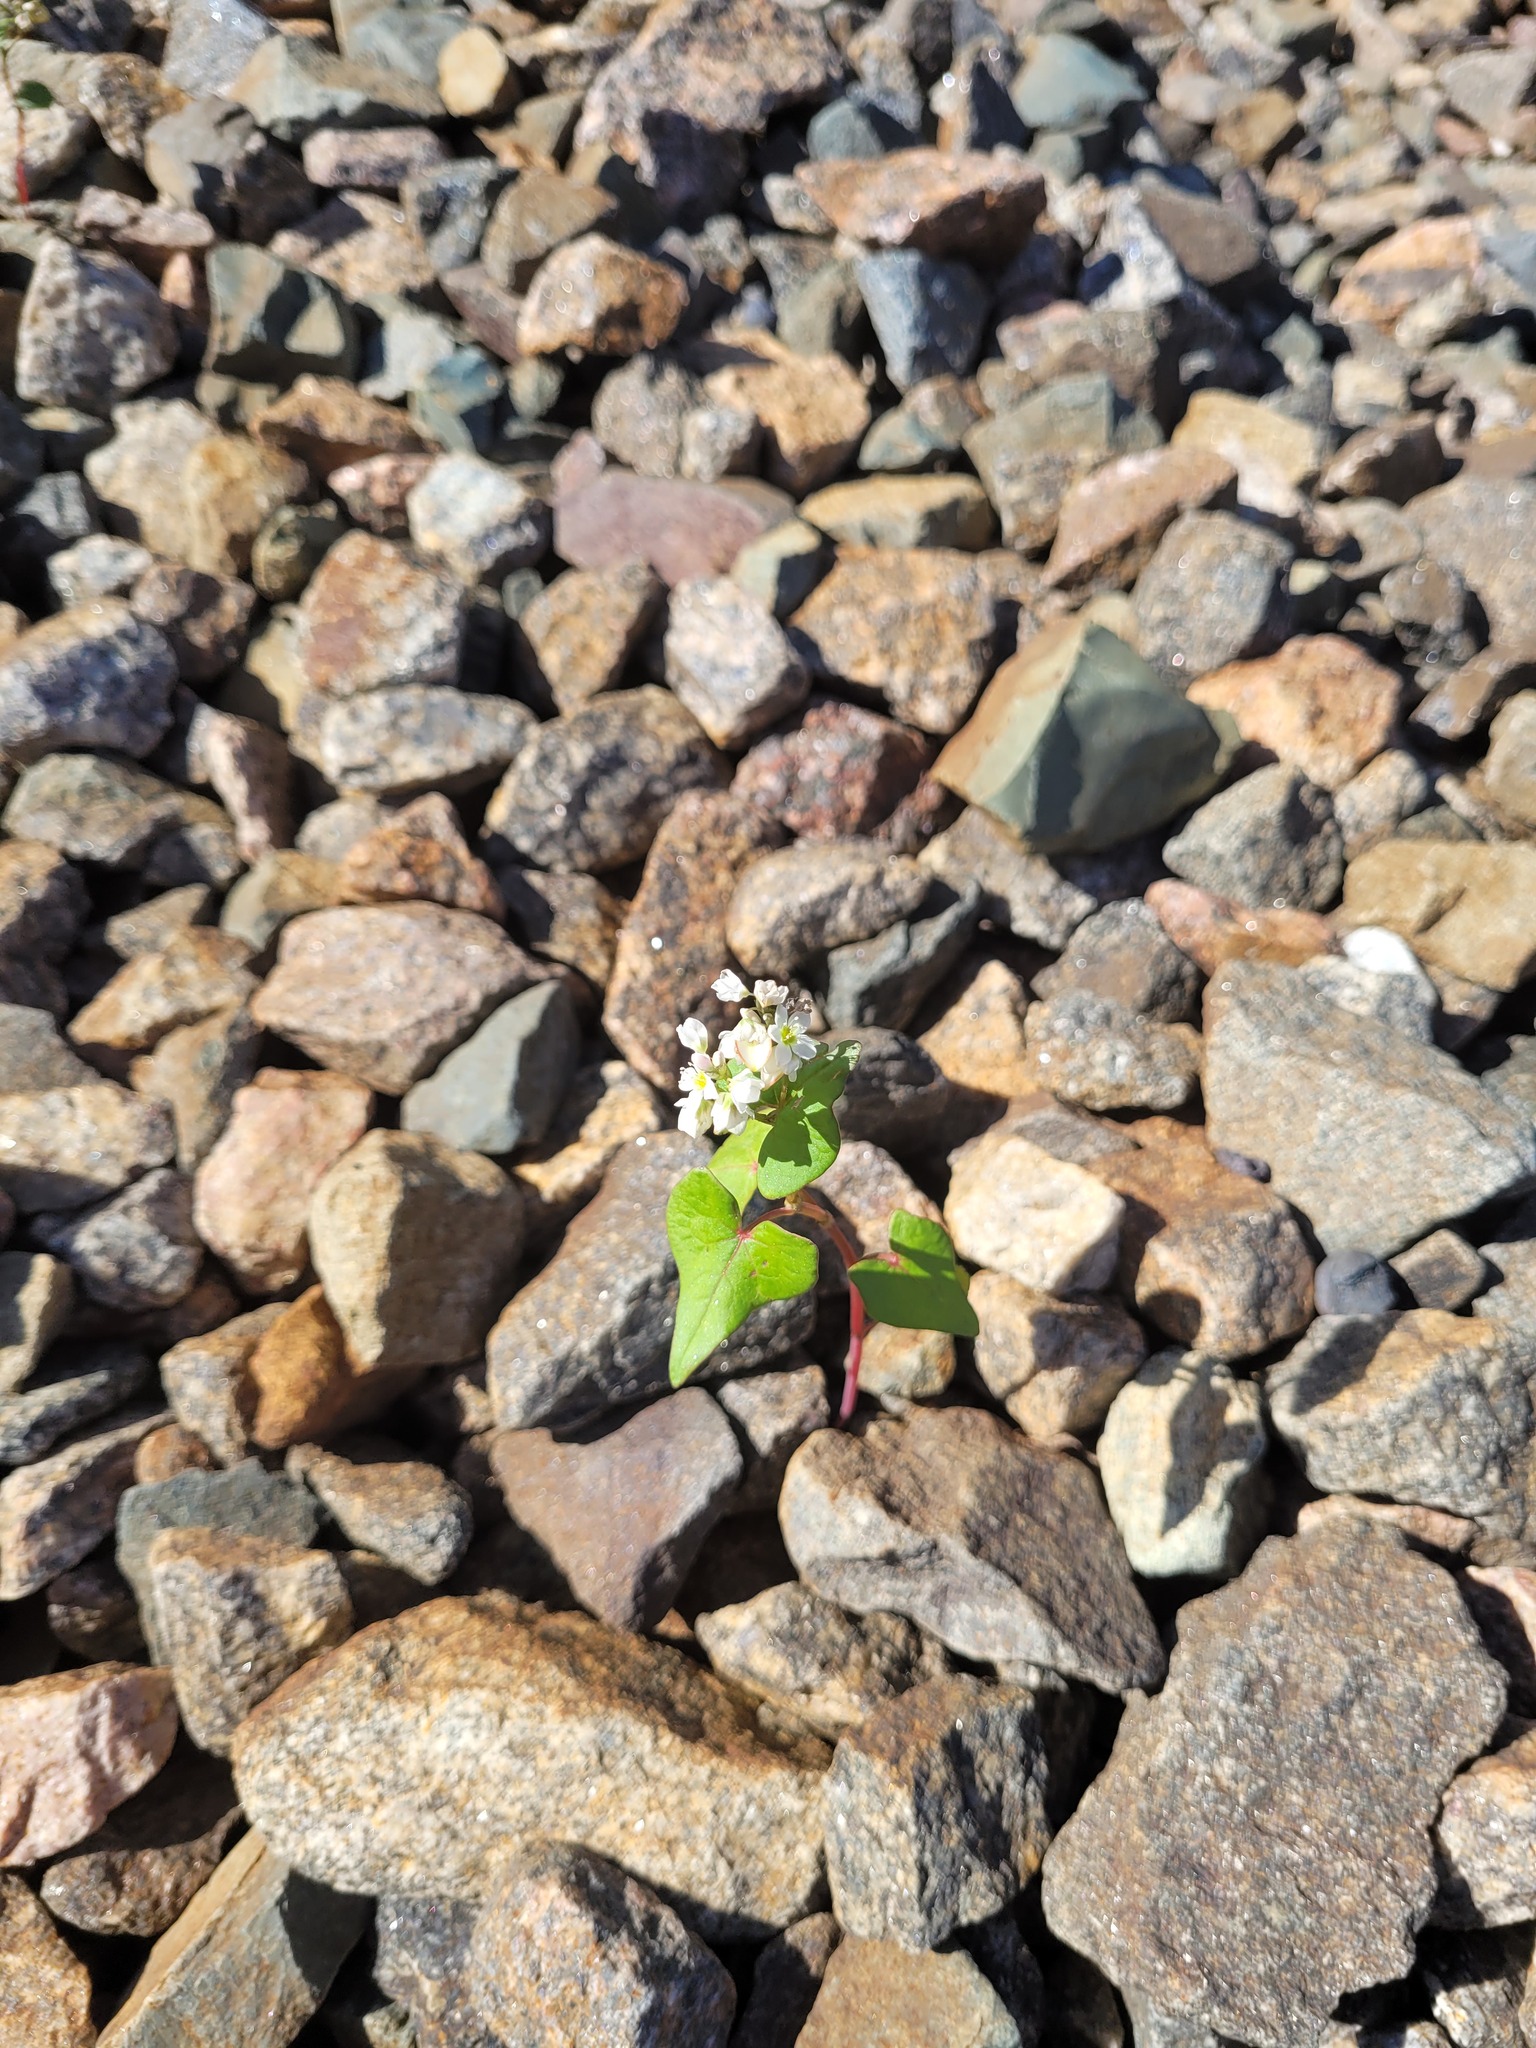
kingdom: Plantae
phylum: Tracheophyta
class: Magnoliopsida
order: Caryophyllales
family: Polygonaceae
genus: Fagopyrum
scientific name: Fagopyrum esculentum
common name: Buckwheat
